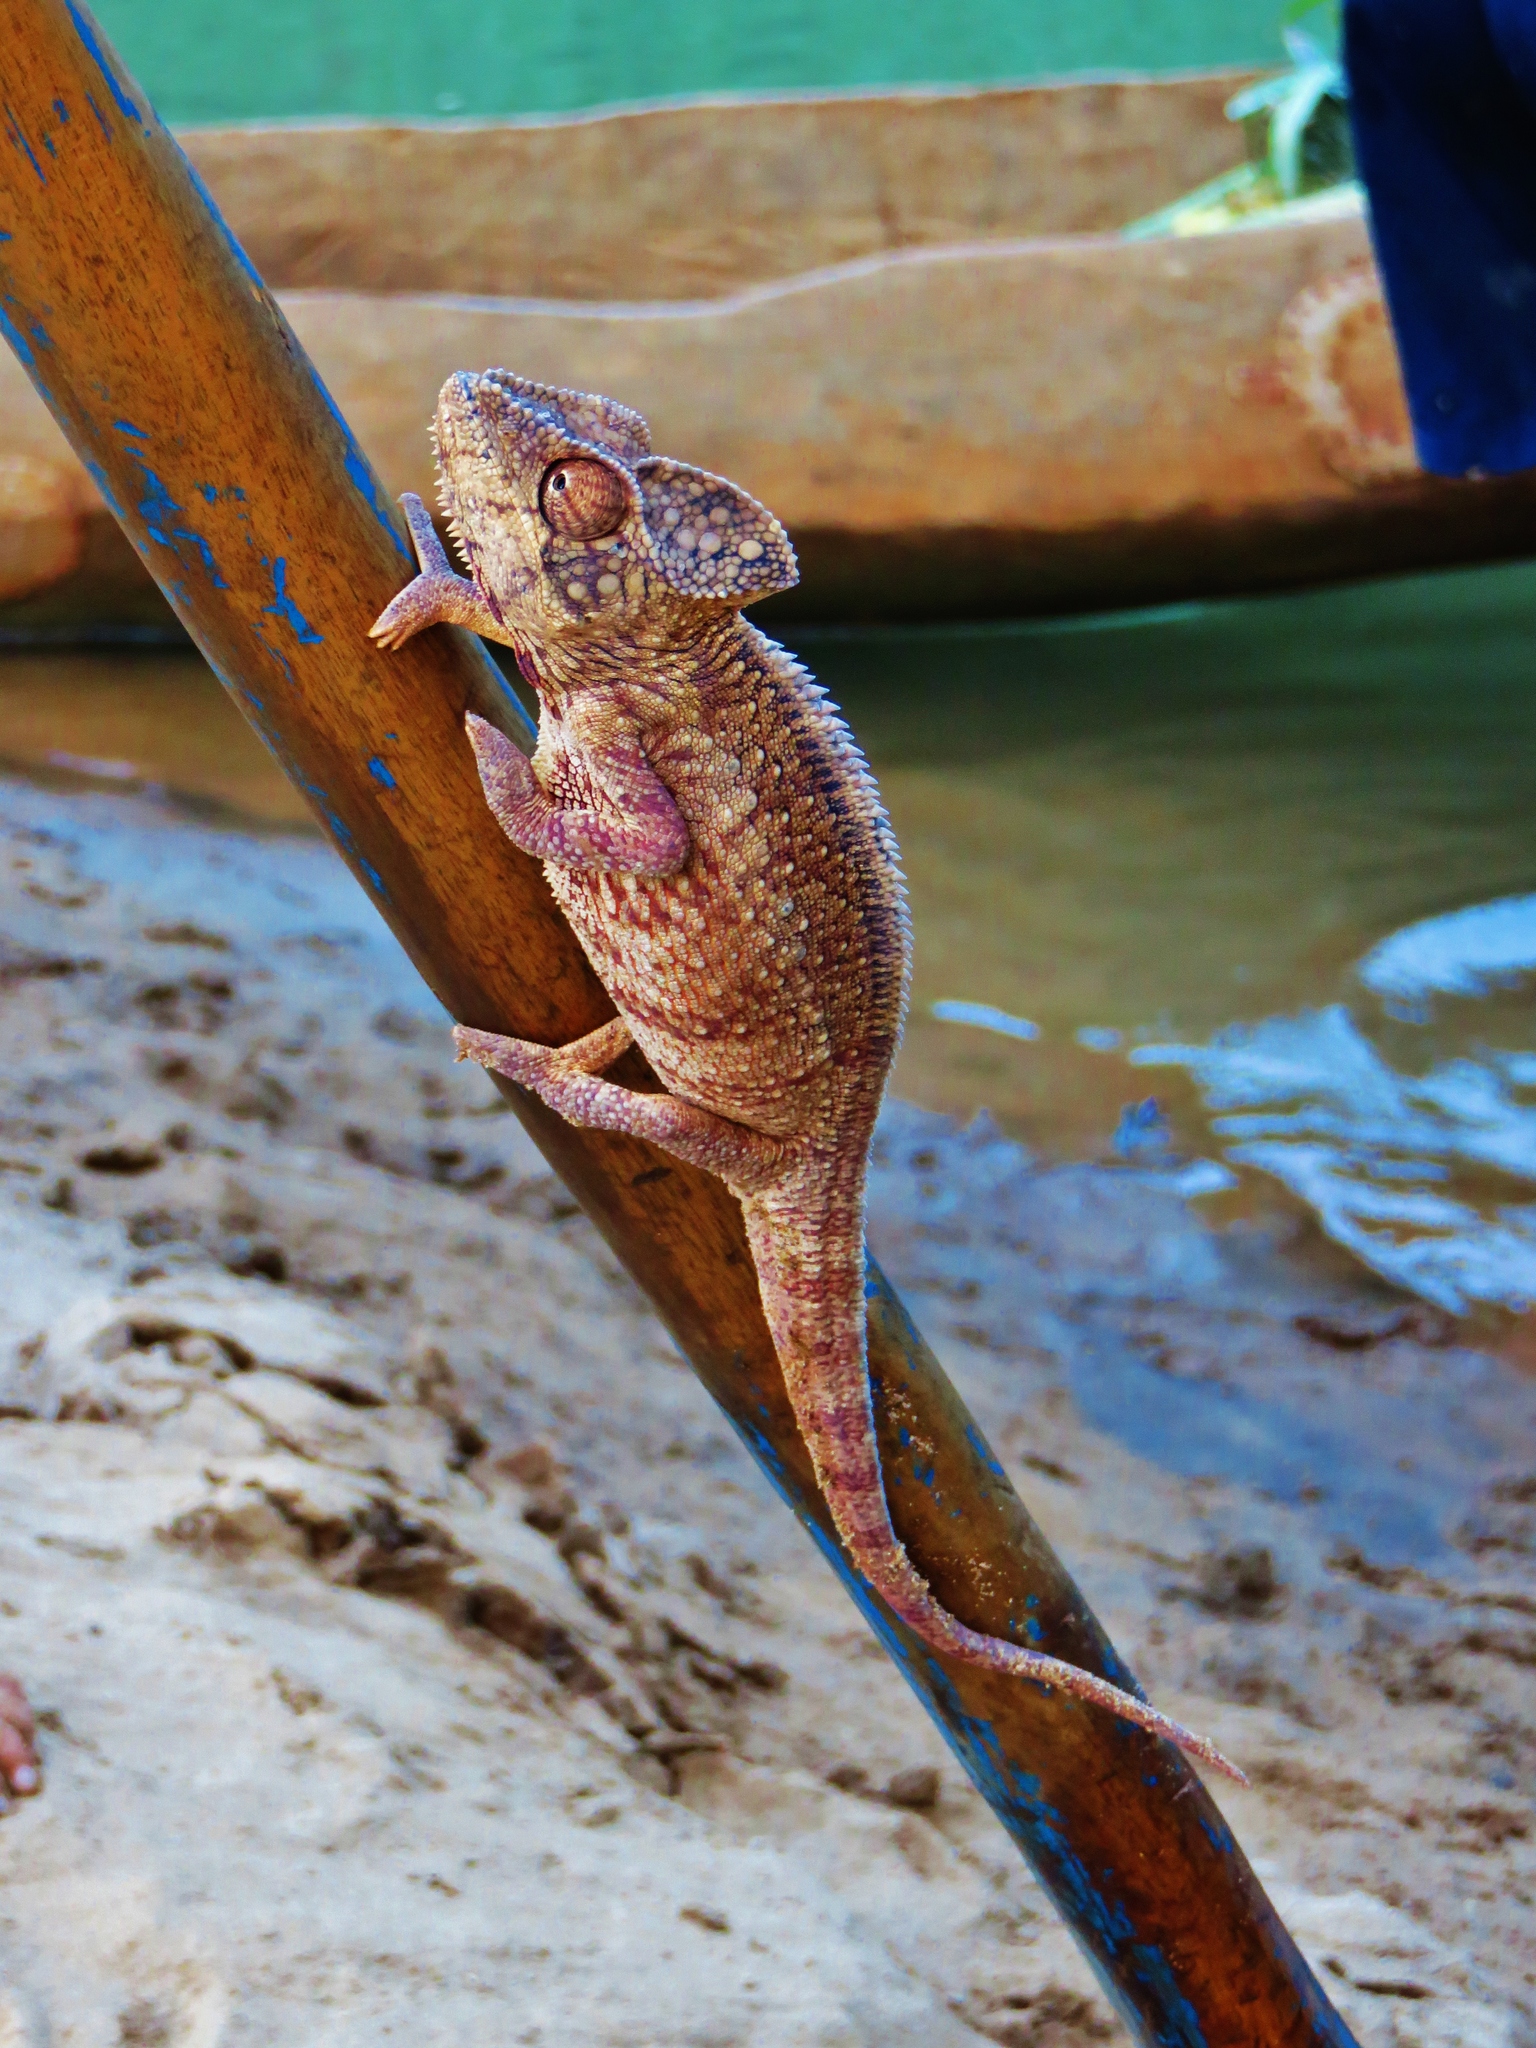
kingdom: Animalia
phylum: Chordata
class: Squamata
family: Chamaeleonidae
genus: Furcifer
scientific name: Furcifer oustaleti
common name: Oustalet's chameleon
